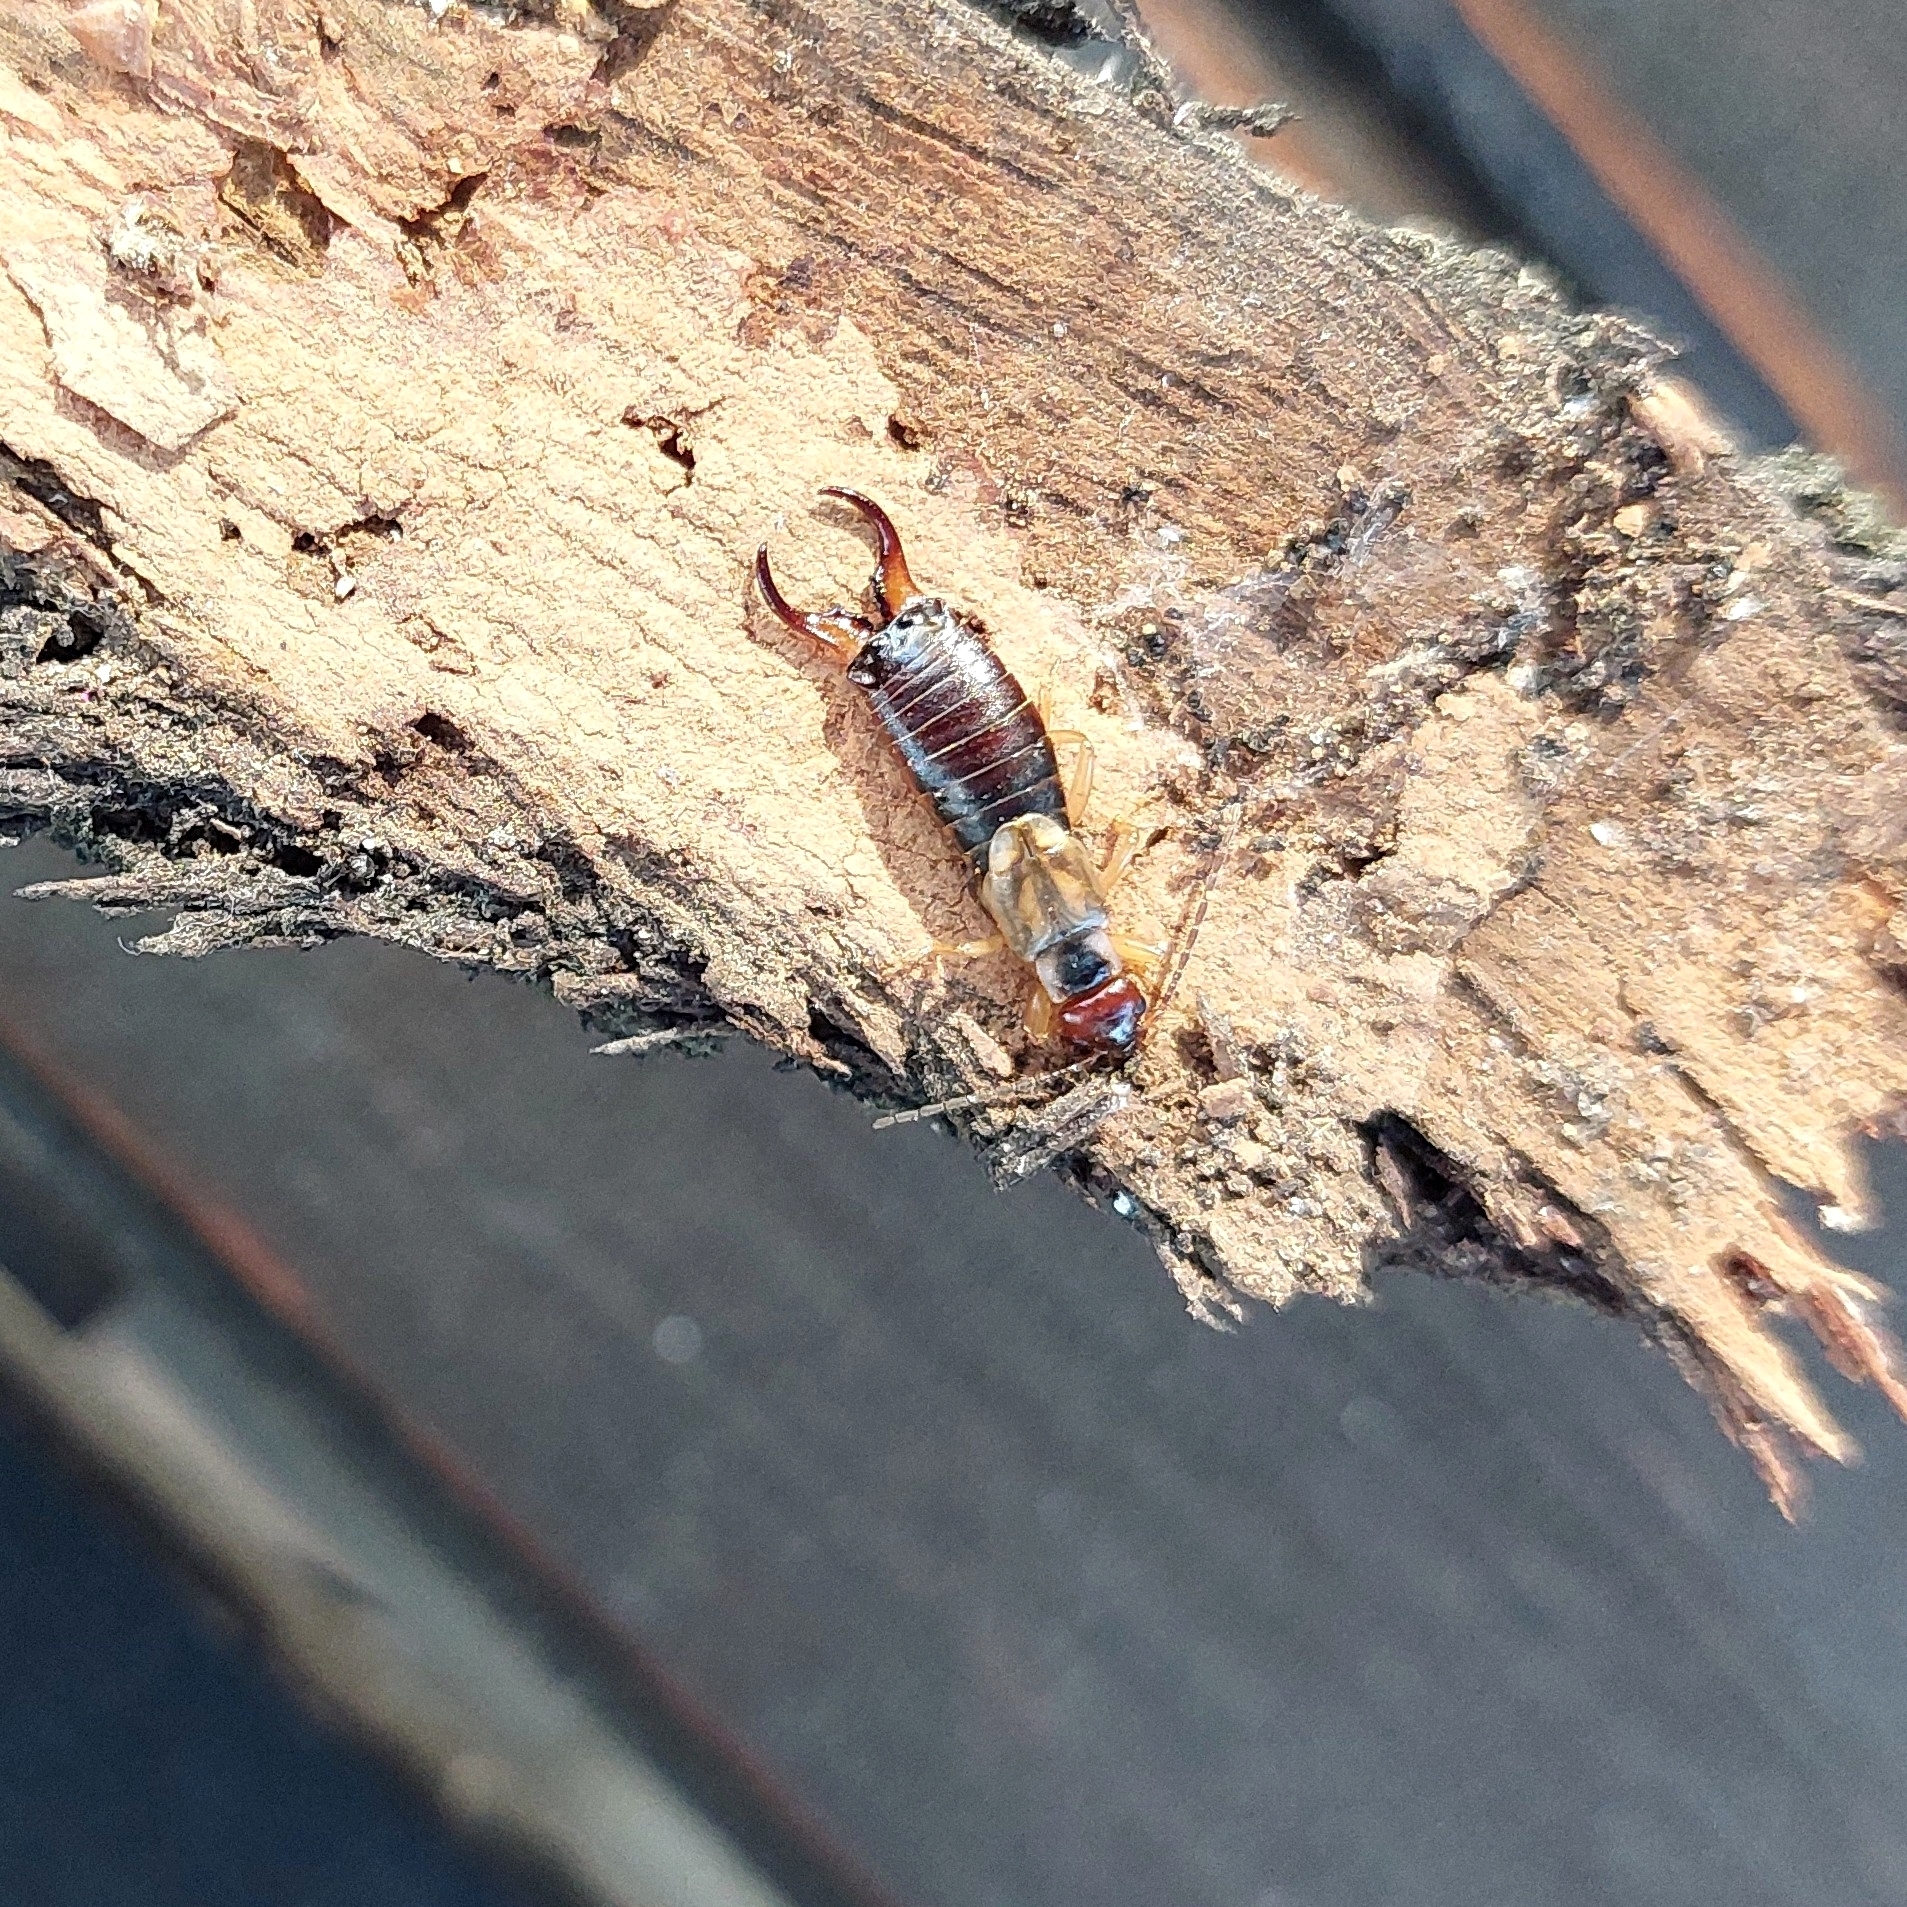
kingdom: Animalia
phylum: Arthropoda
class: Insecta
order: Dermaptera
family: Forficulidae
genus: Forficula
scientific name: Forficula
